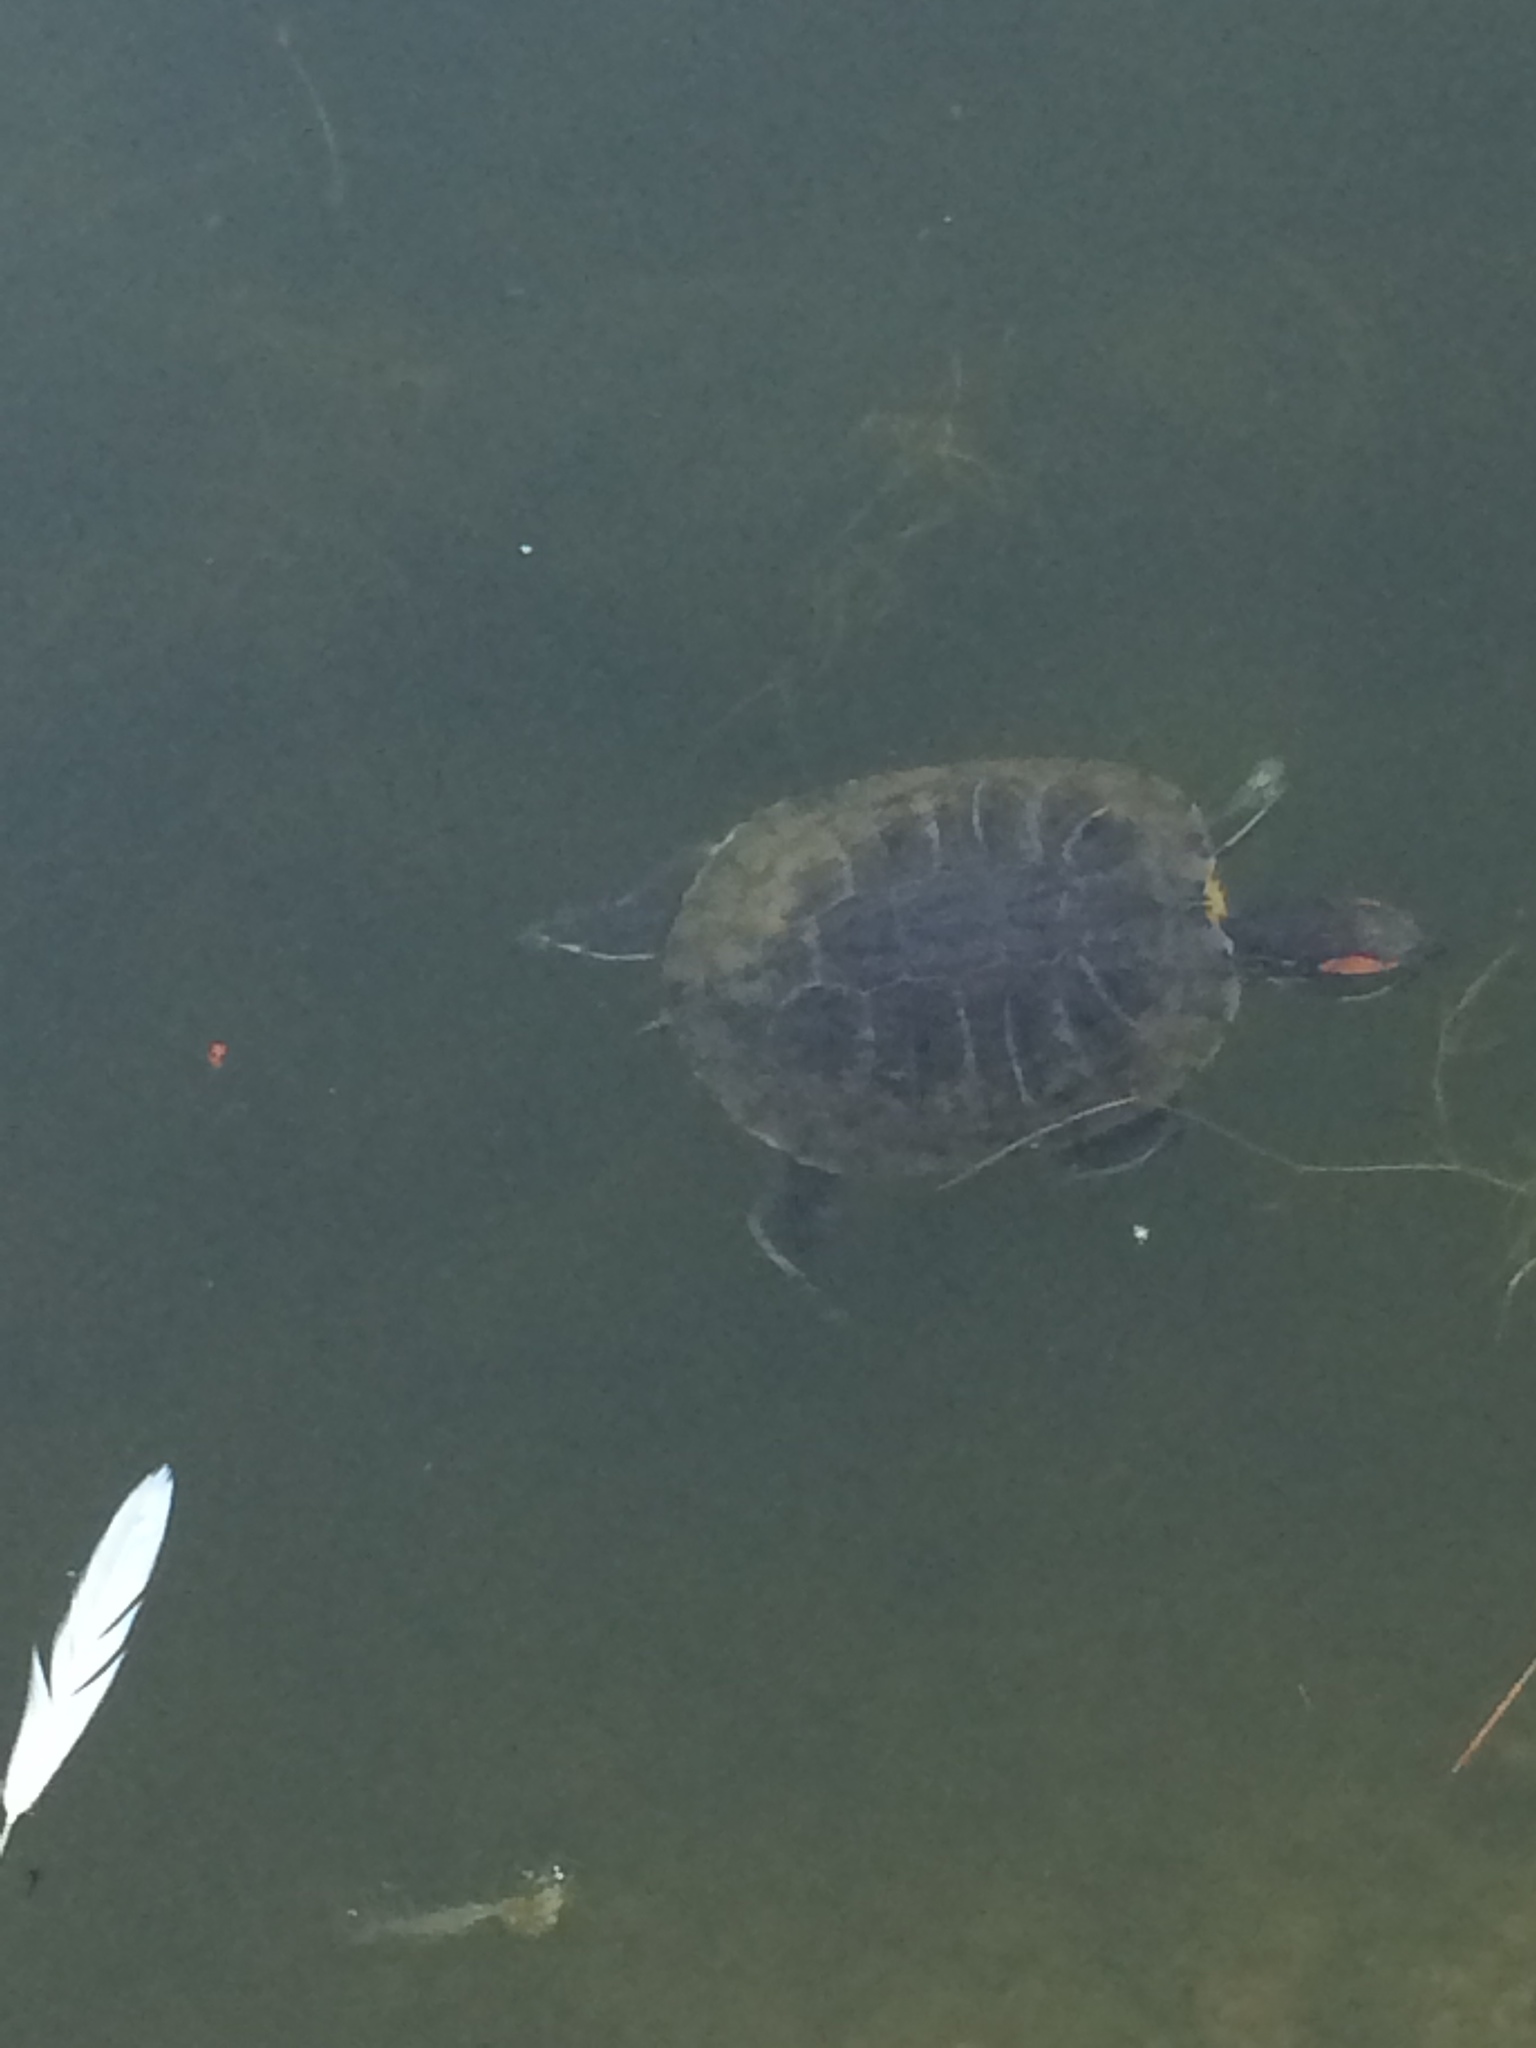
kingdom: Animalia
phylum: Chordata
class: Testudines
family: Emydidae
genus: Trachemys
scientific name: Trachemys scripta
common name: Slider
